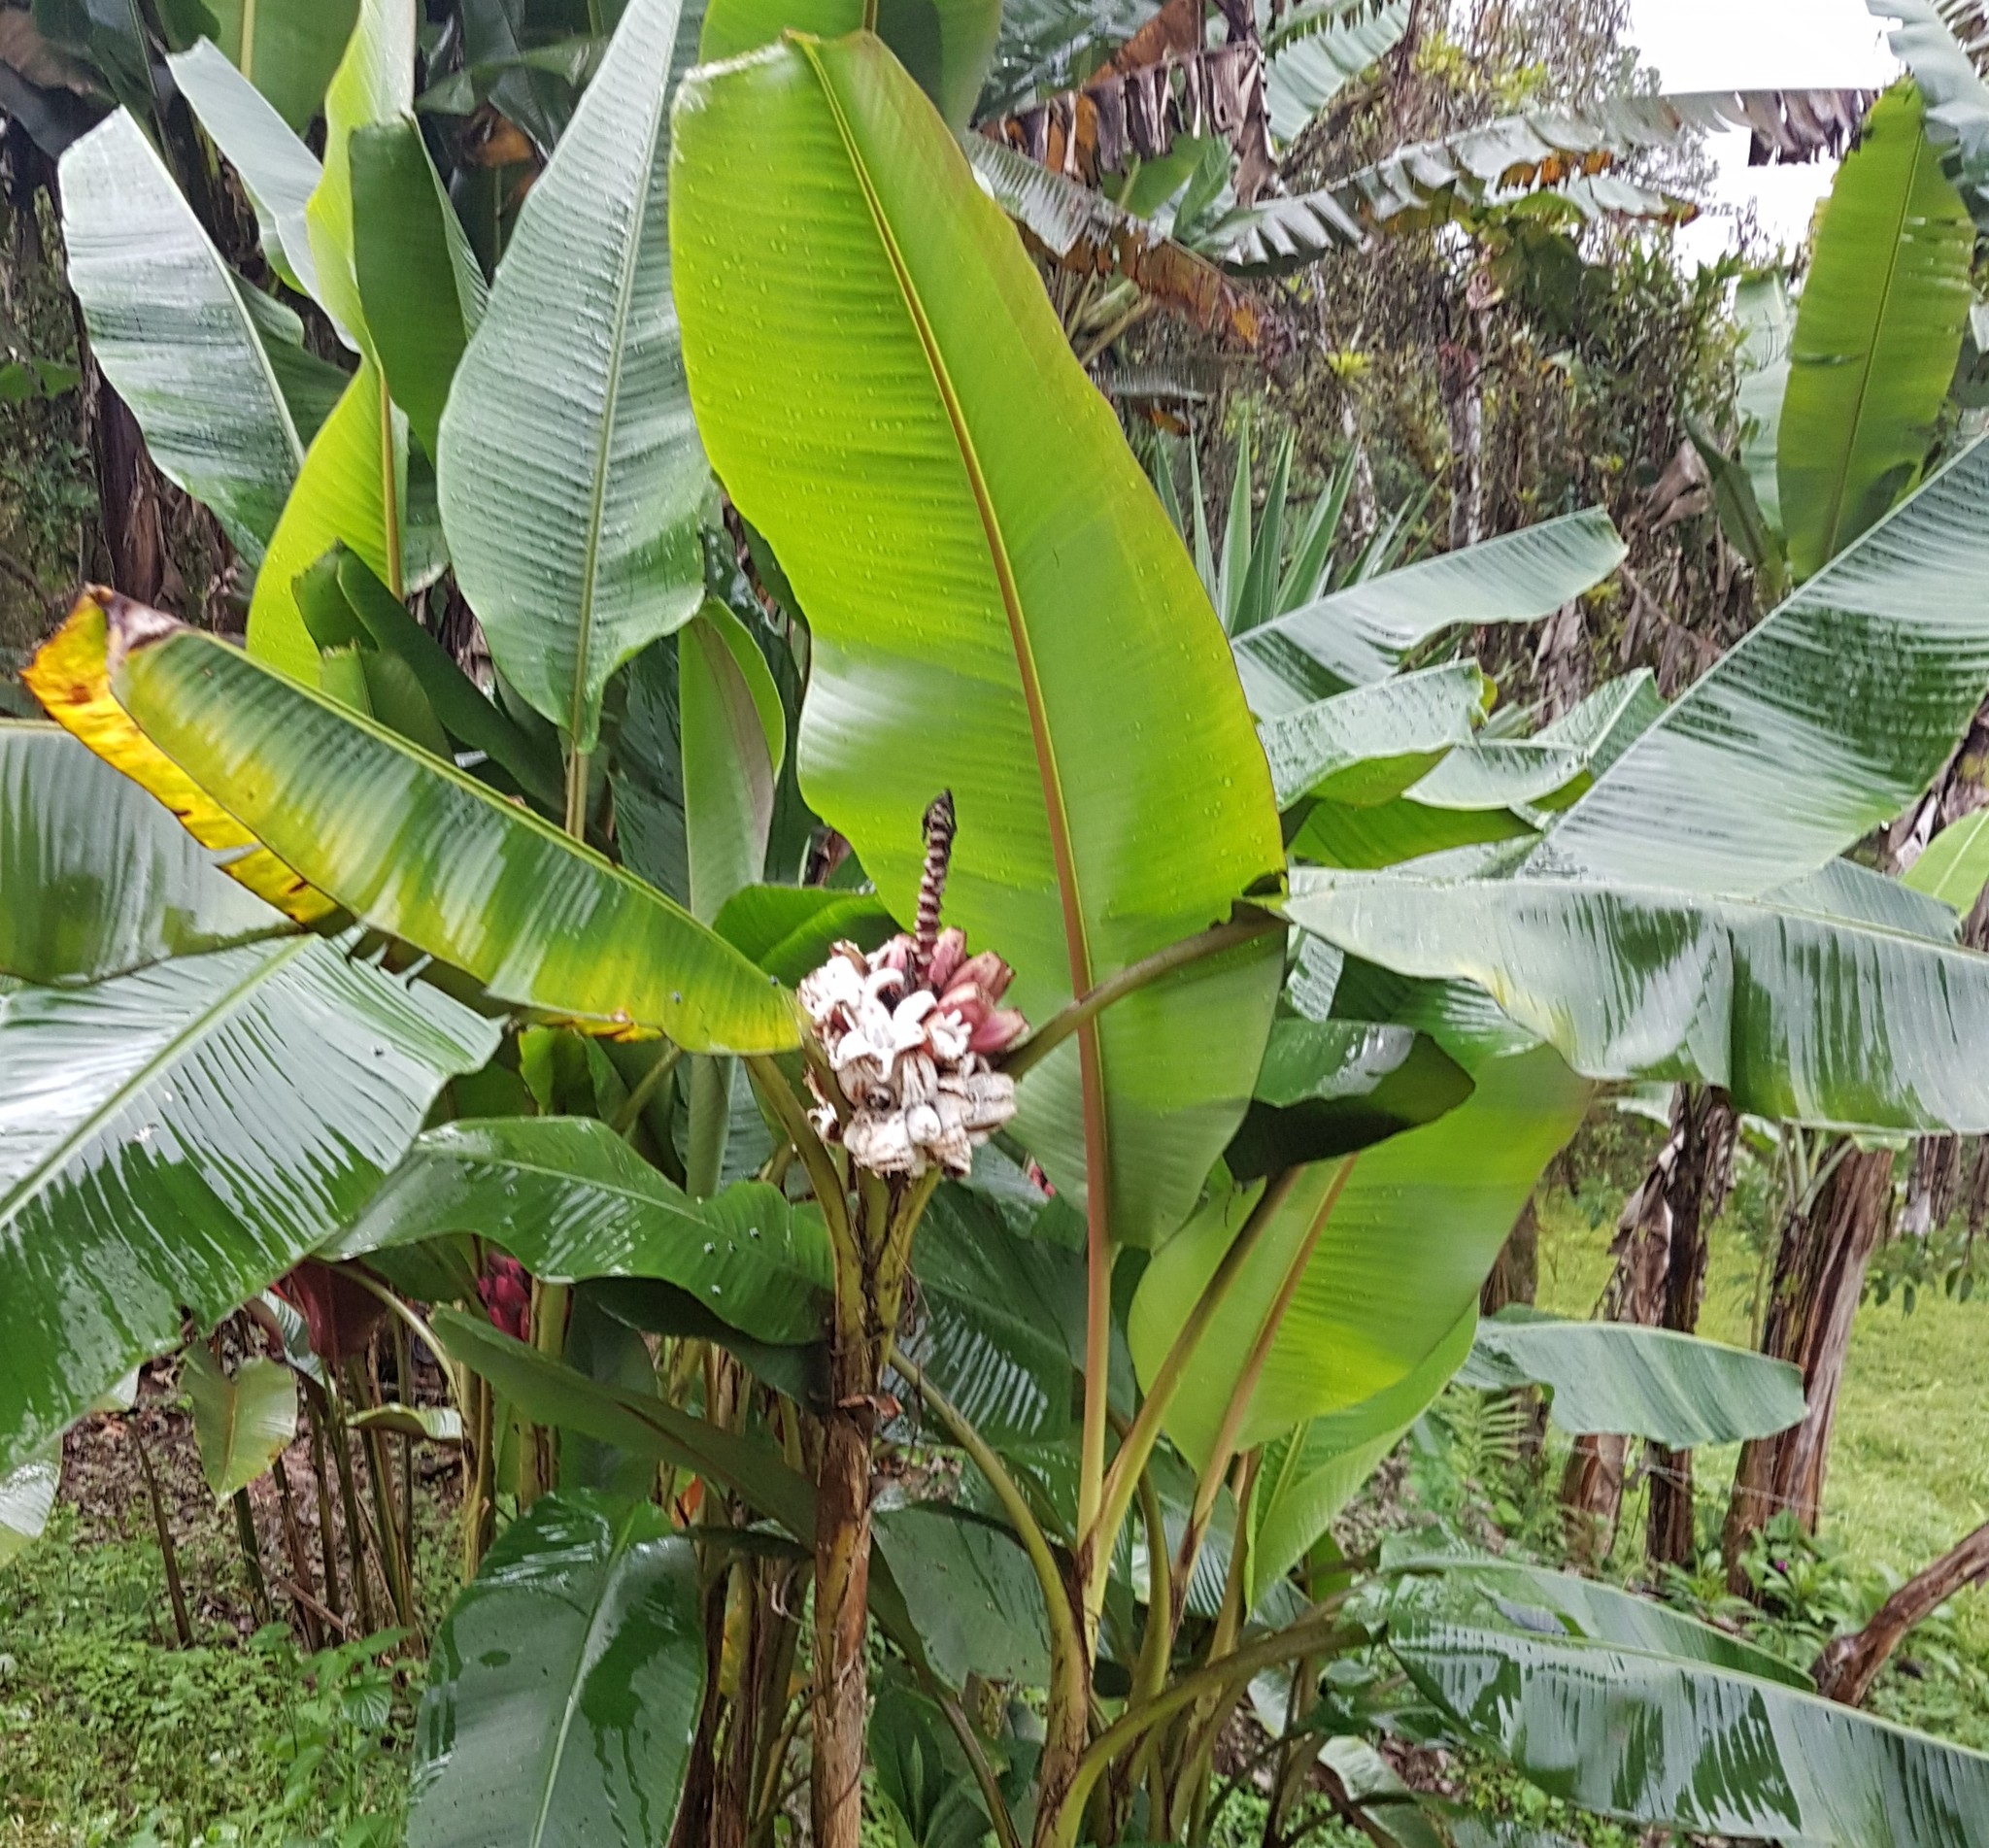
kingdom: Plantae
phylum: Tracheophyta
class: Liliopsida
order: Zingiberales
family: Musaceae
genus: Musa
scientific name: Musa velutina
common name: Pink velvet banana
